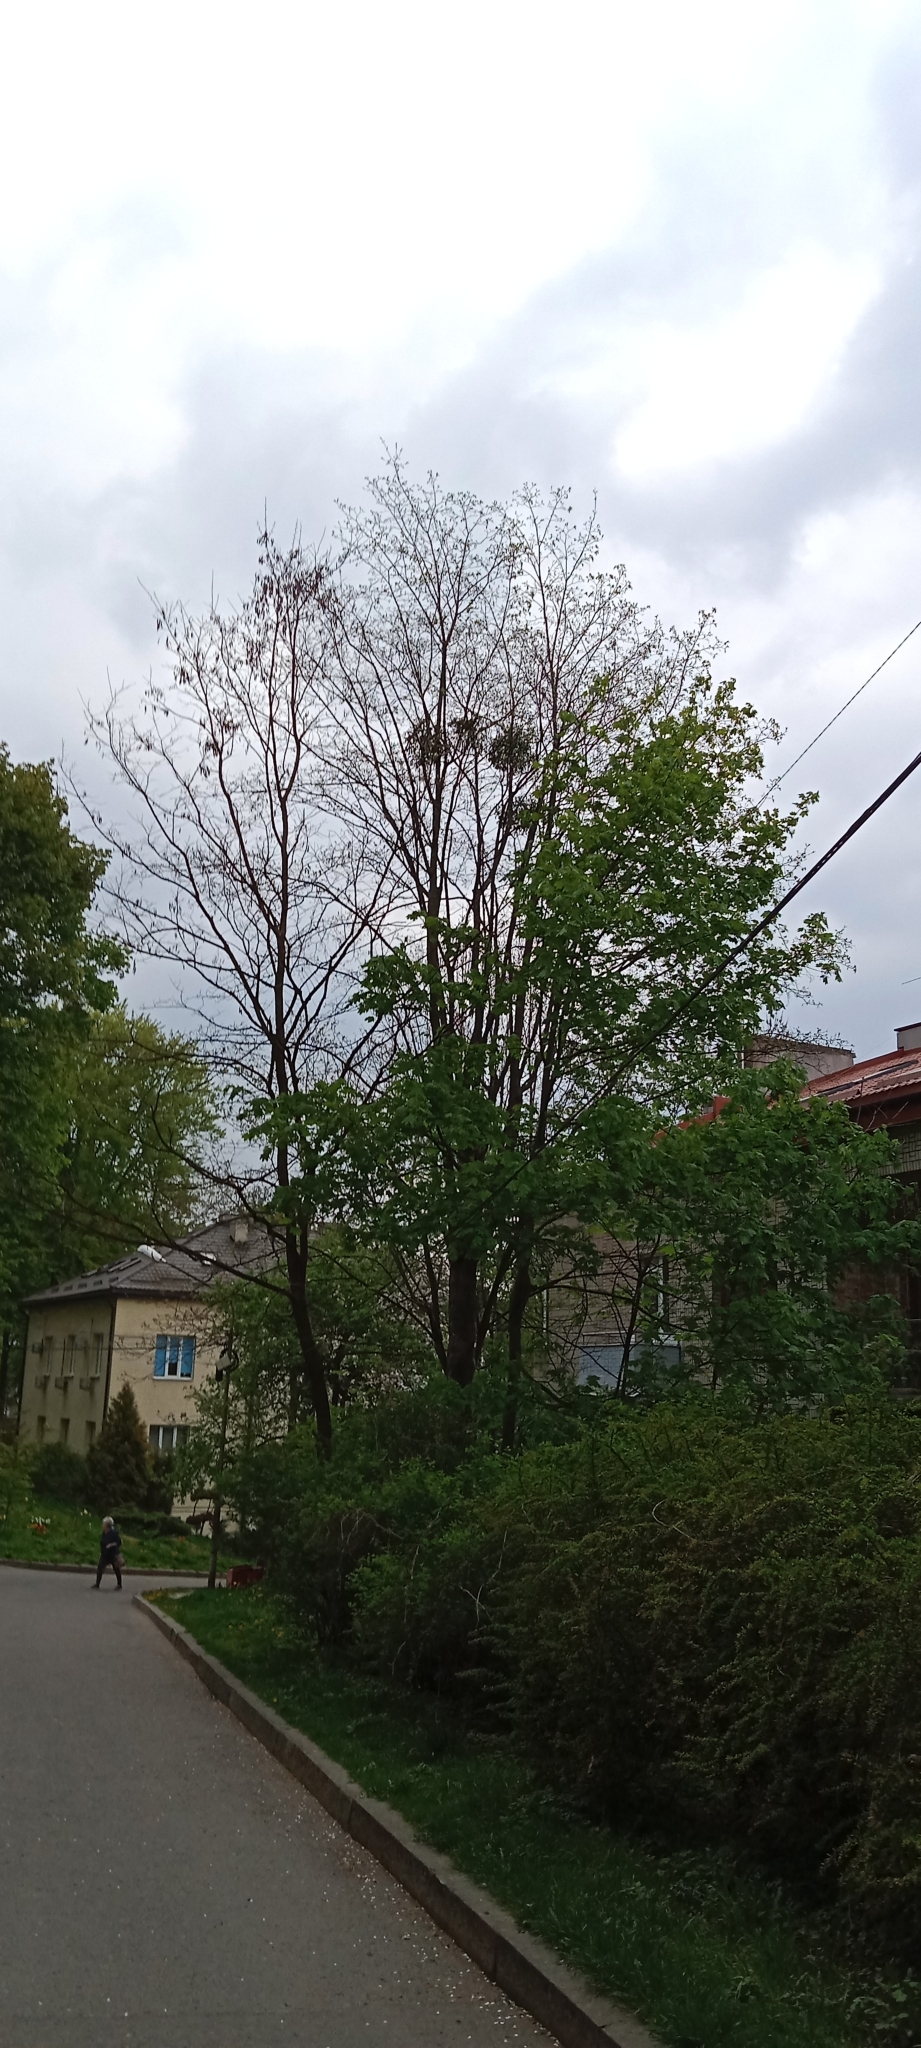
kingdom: Plantae
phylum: Tracheophyta
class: Magnoliopsida
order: Santalales
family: Viscaceae
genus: Viscum
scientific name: Viscum album
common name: Mistletoe
